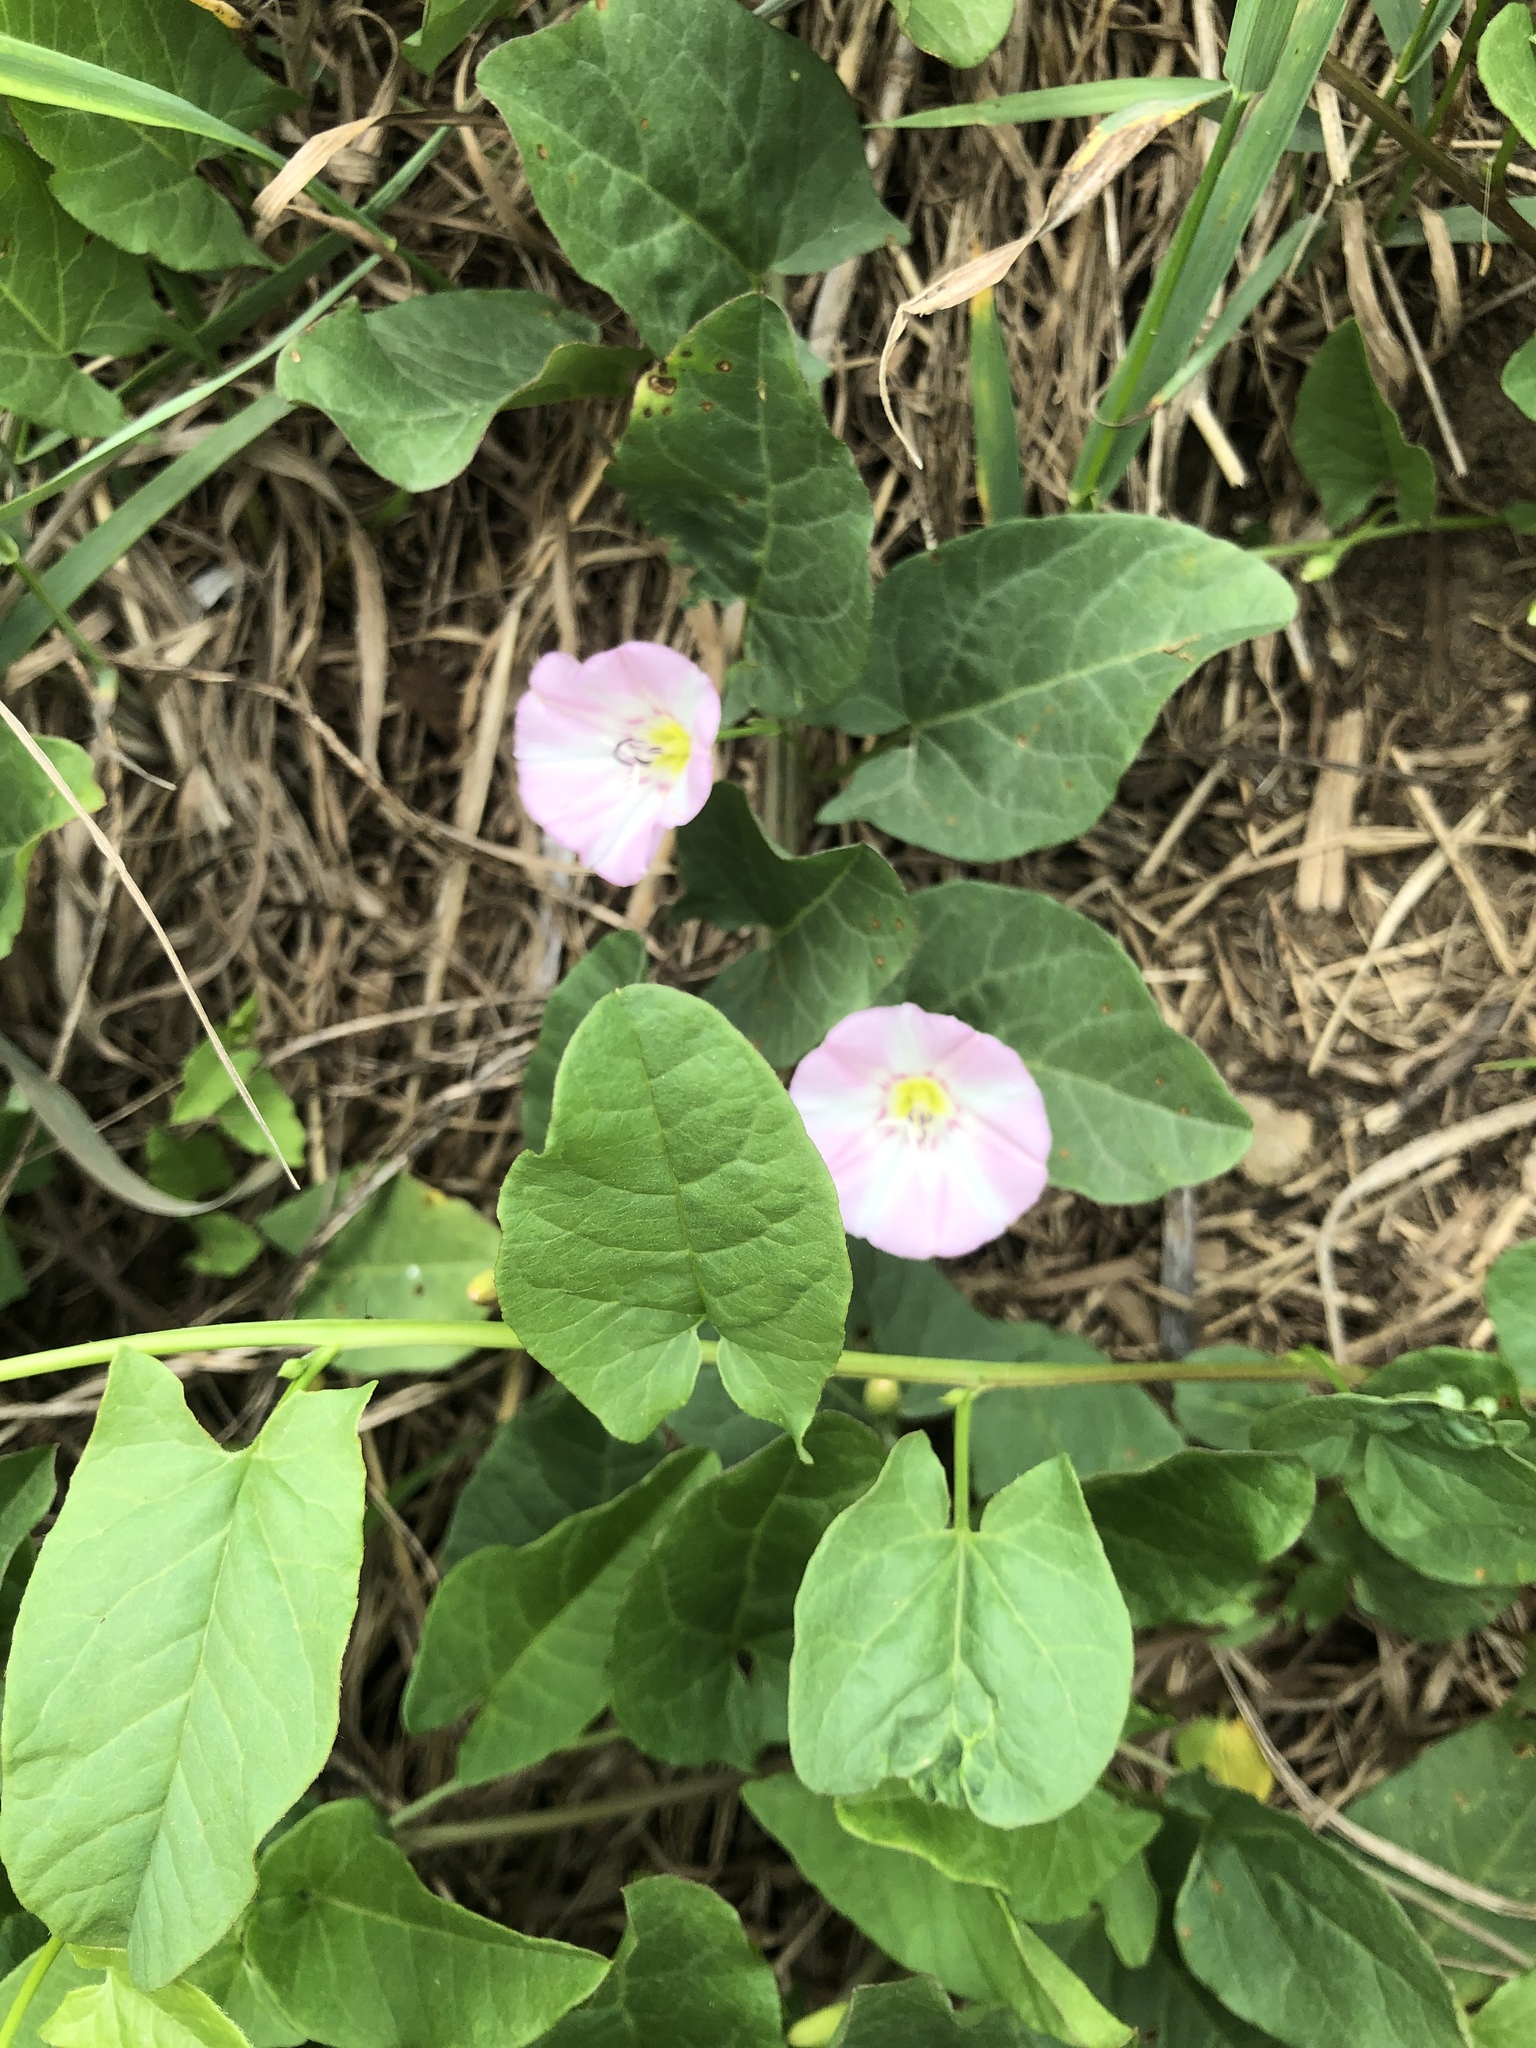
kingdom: Plantae
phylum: Tracheophyta
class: Magnoliopsida
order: Solanales
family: Convolvulaceae
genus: Convolvulus
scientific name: Convolvulus arvensis
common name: Field bindweed
